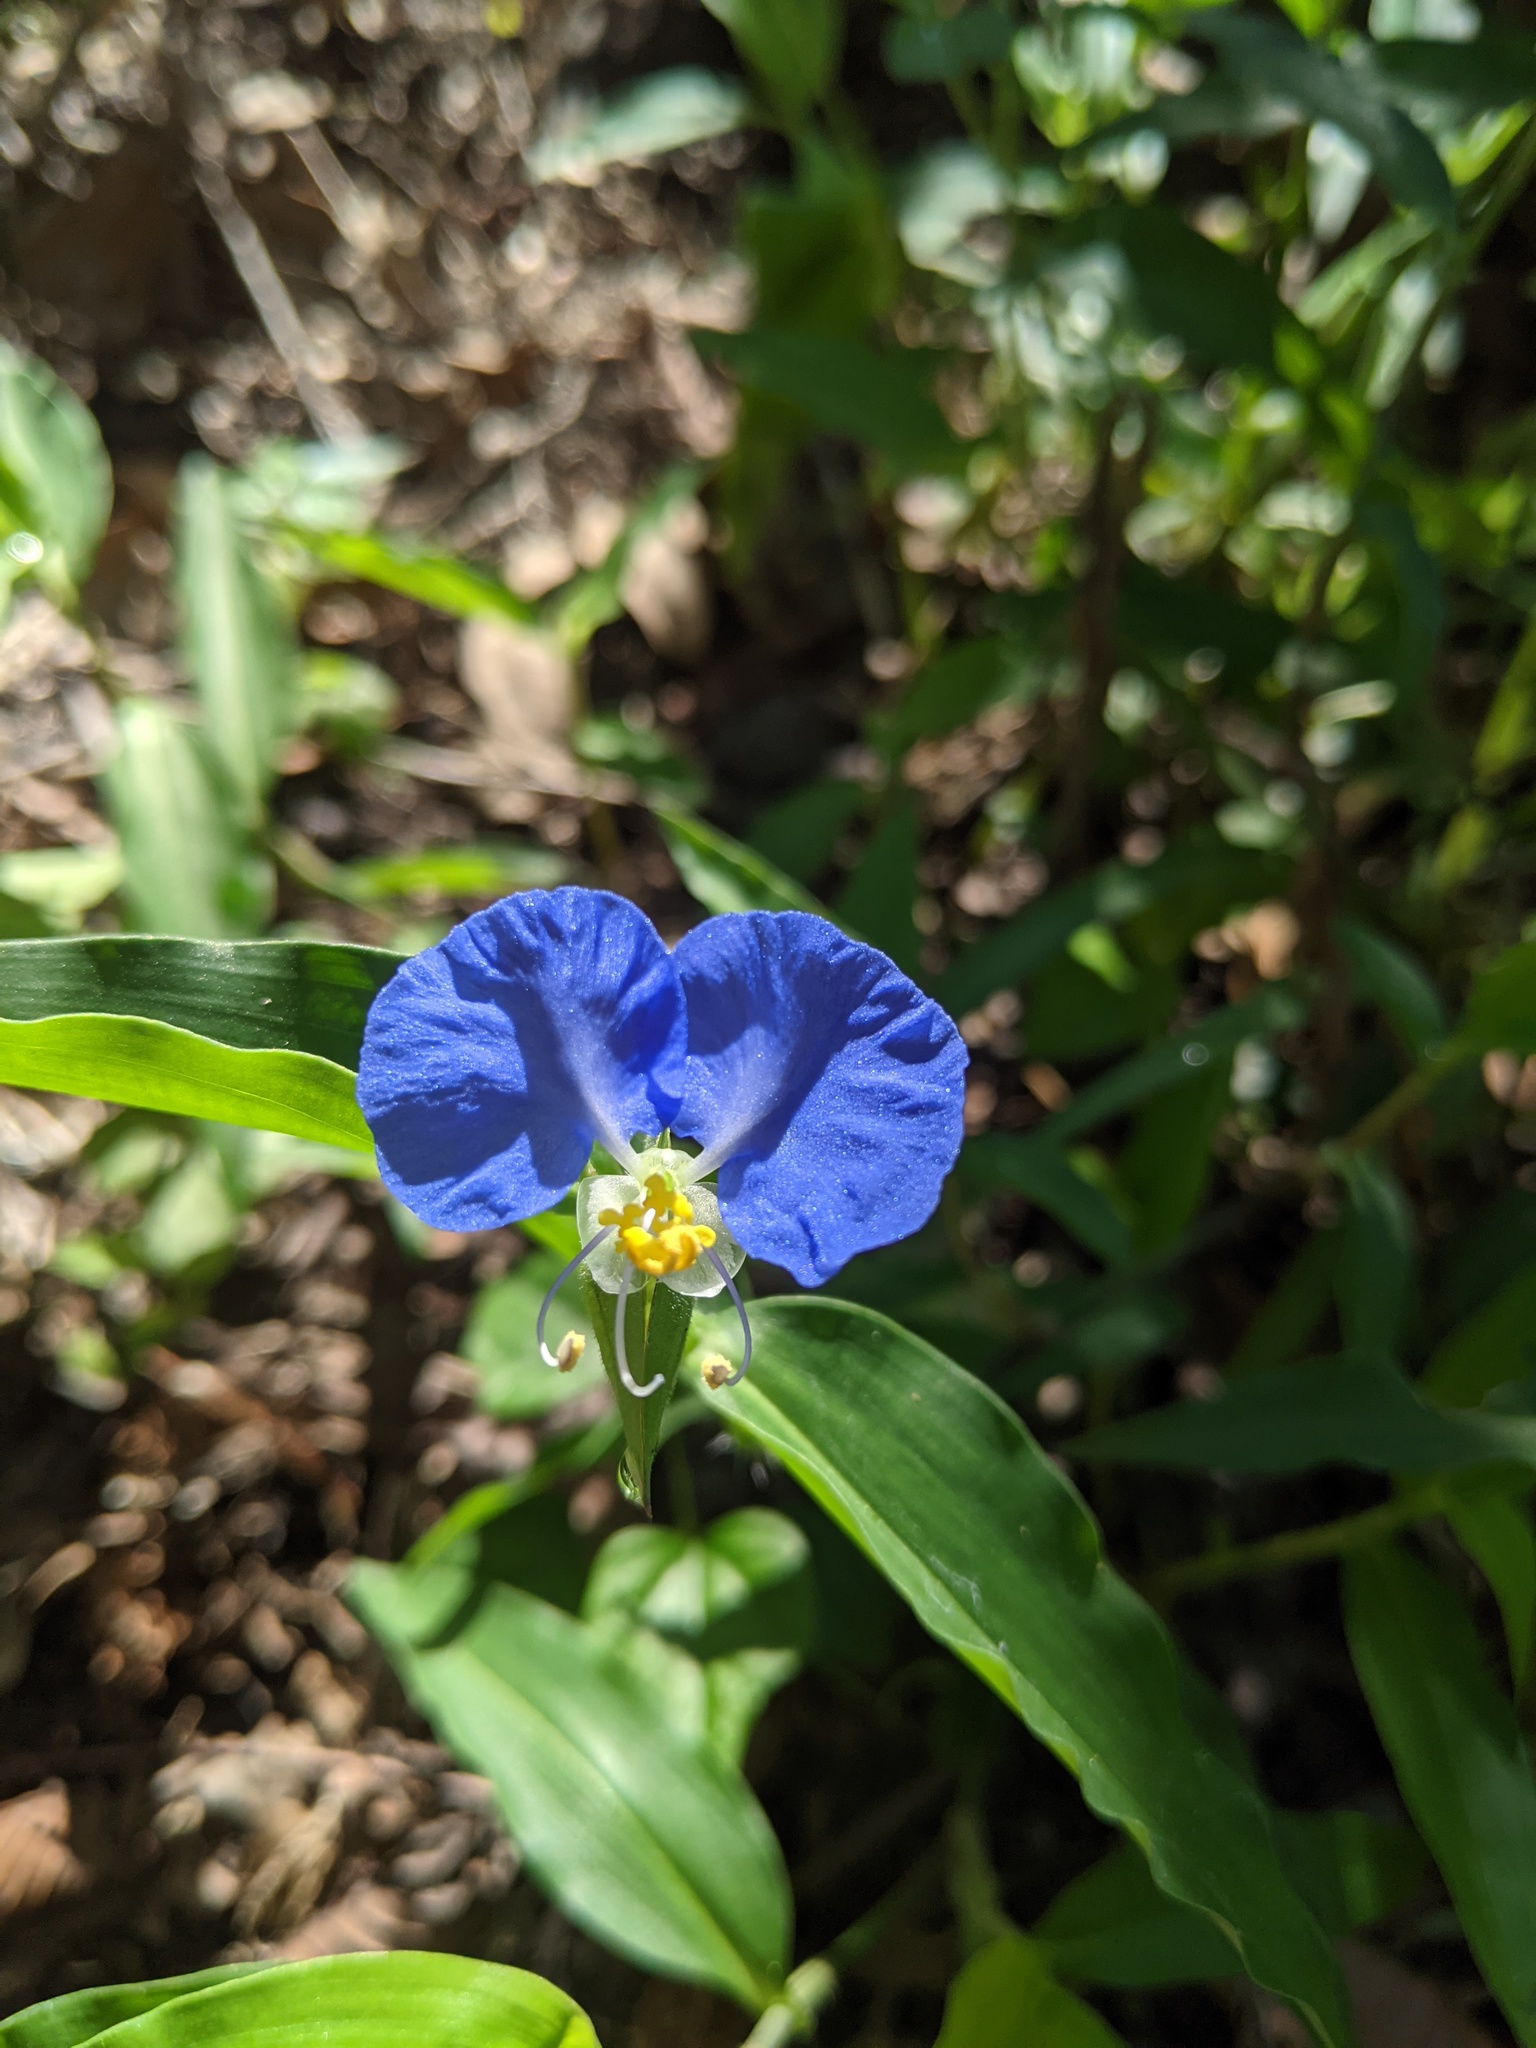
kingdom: Plantae
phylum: Tracheophyta
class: Liliopsida
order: Commelinales
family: Commelinaceae
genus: Commelina
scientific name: Commelina erecta
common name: Blousel blommetjie
